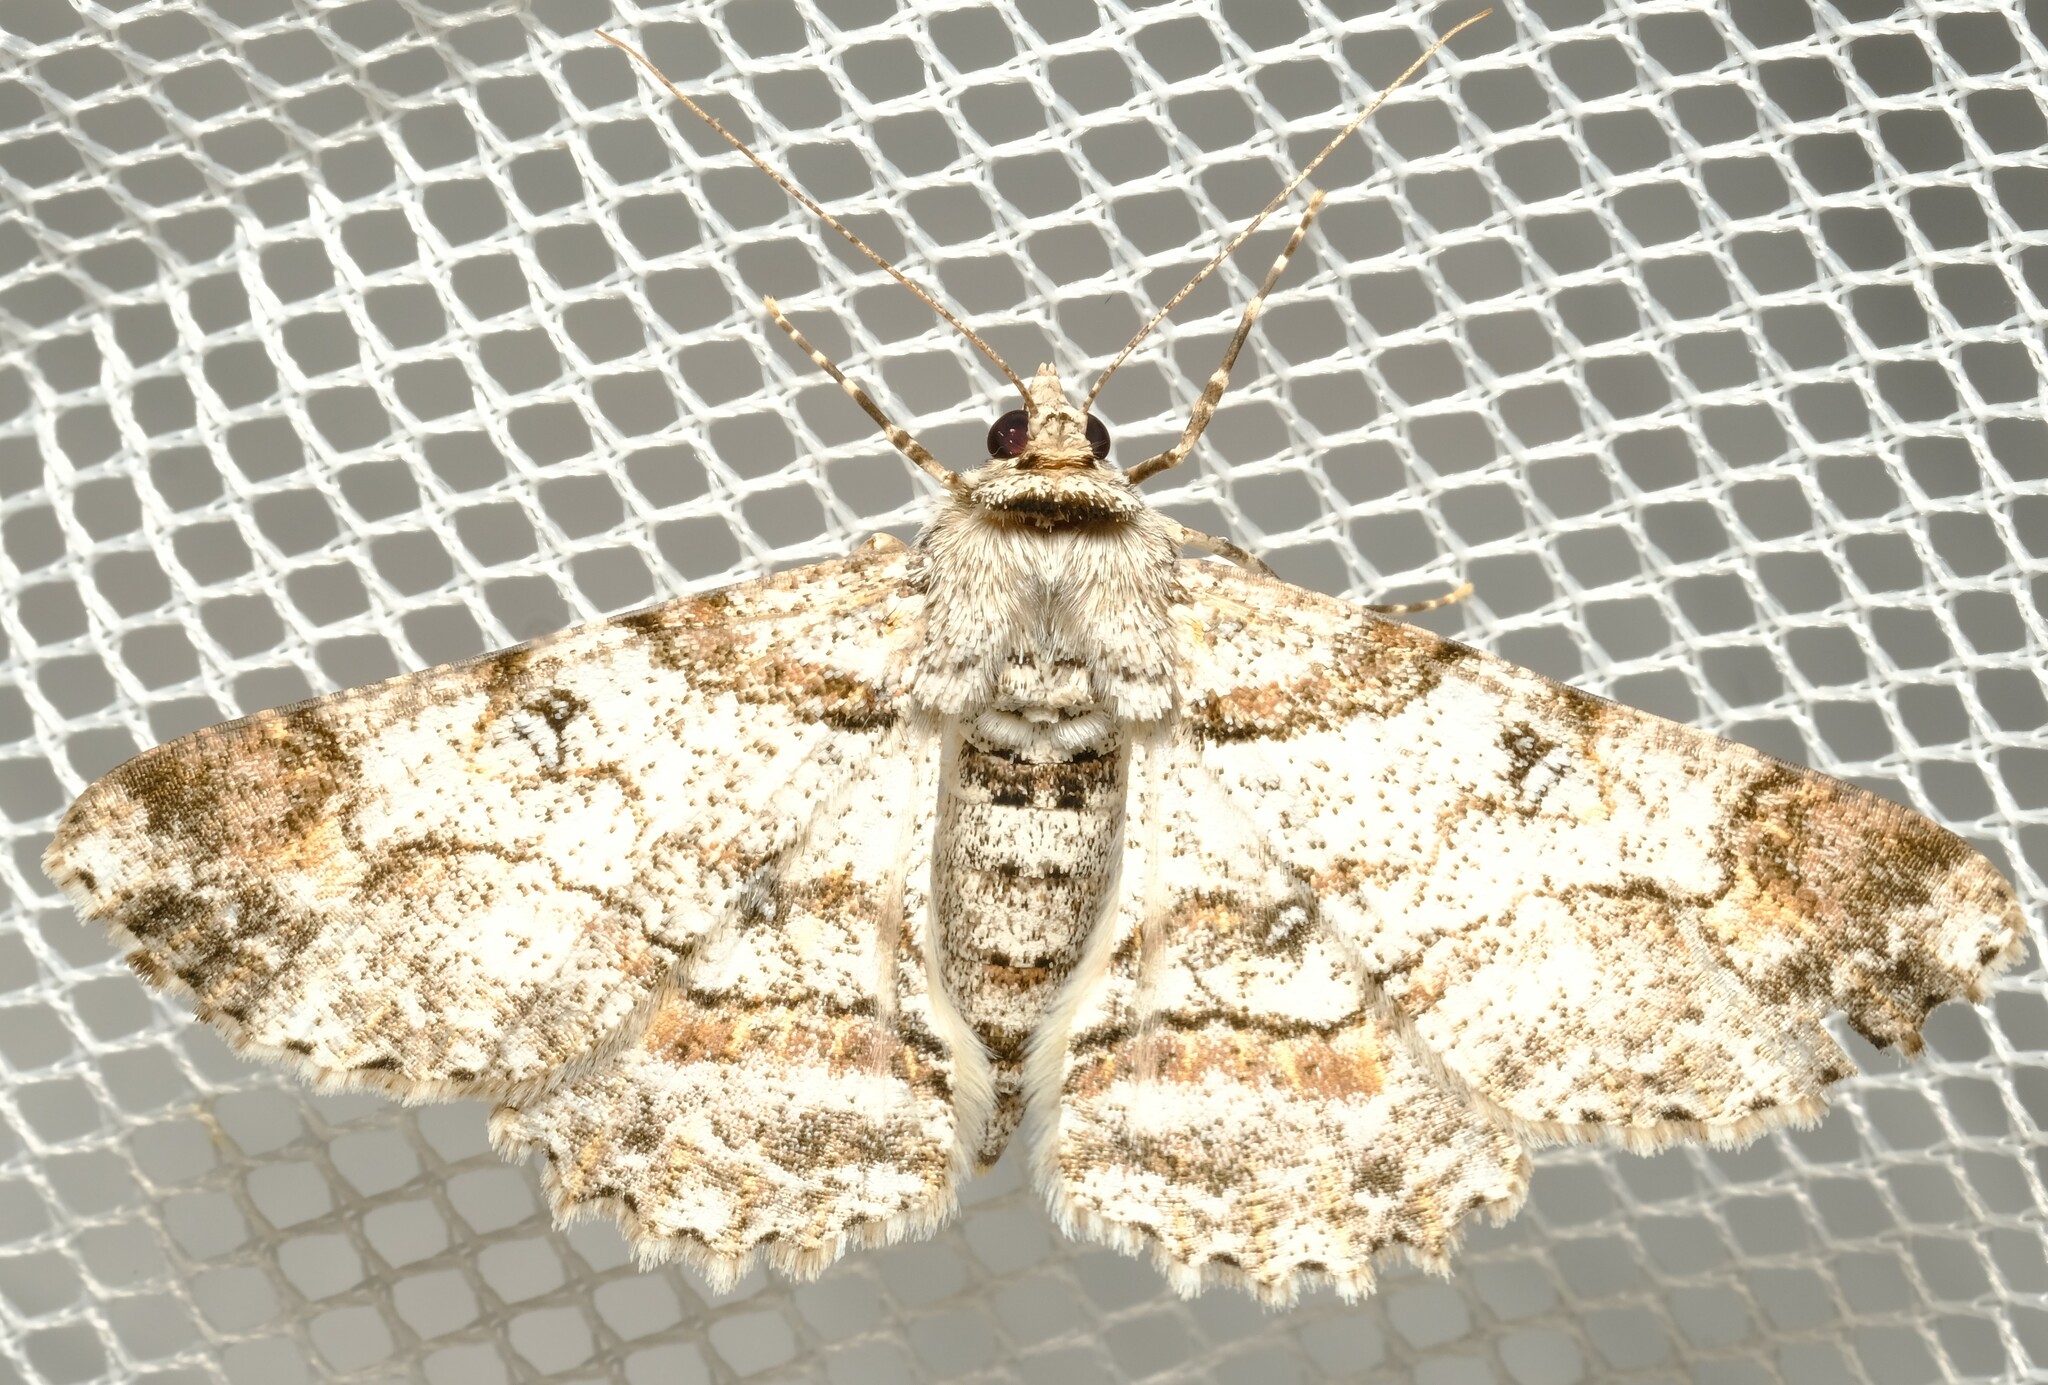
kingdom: Animalia
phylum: Arthropoda
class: Insecta
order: Lepidoptera
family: Geometridae
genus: Cleora
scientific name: Cleora illustraria
